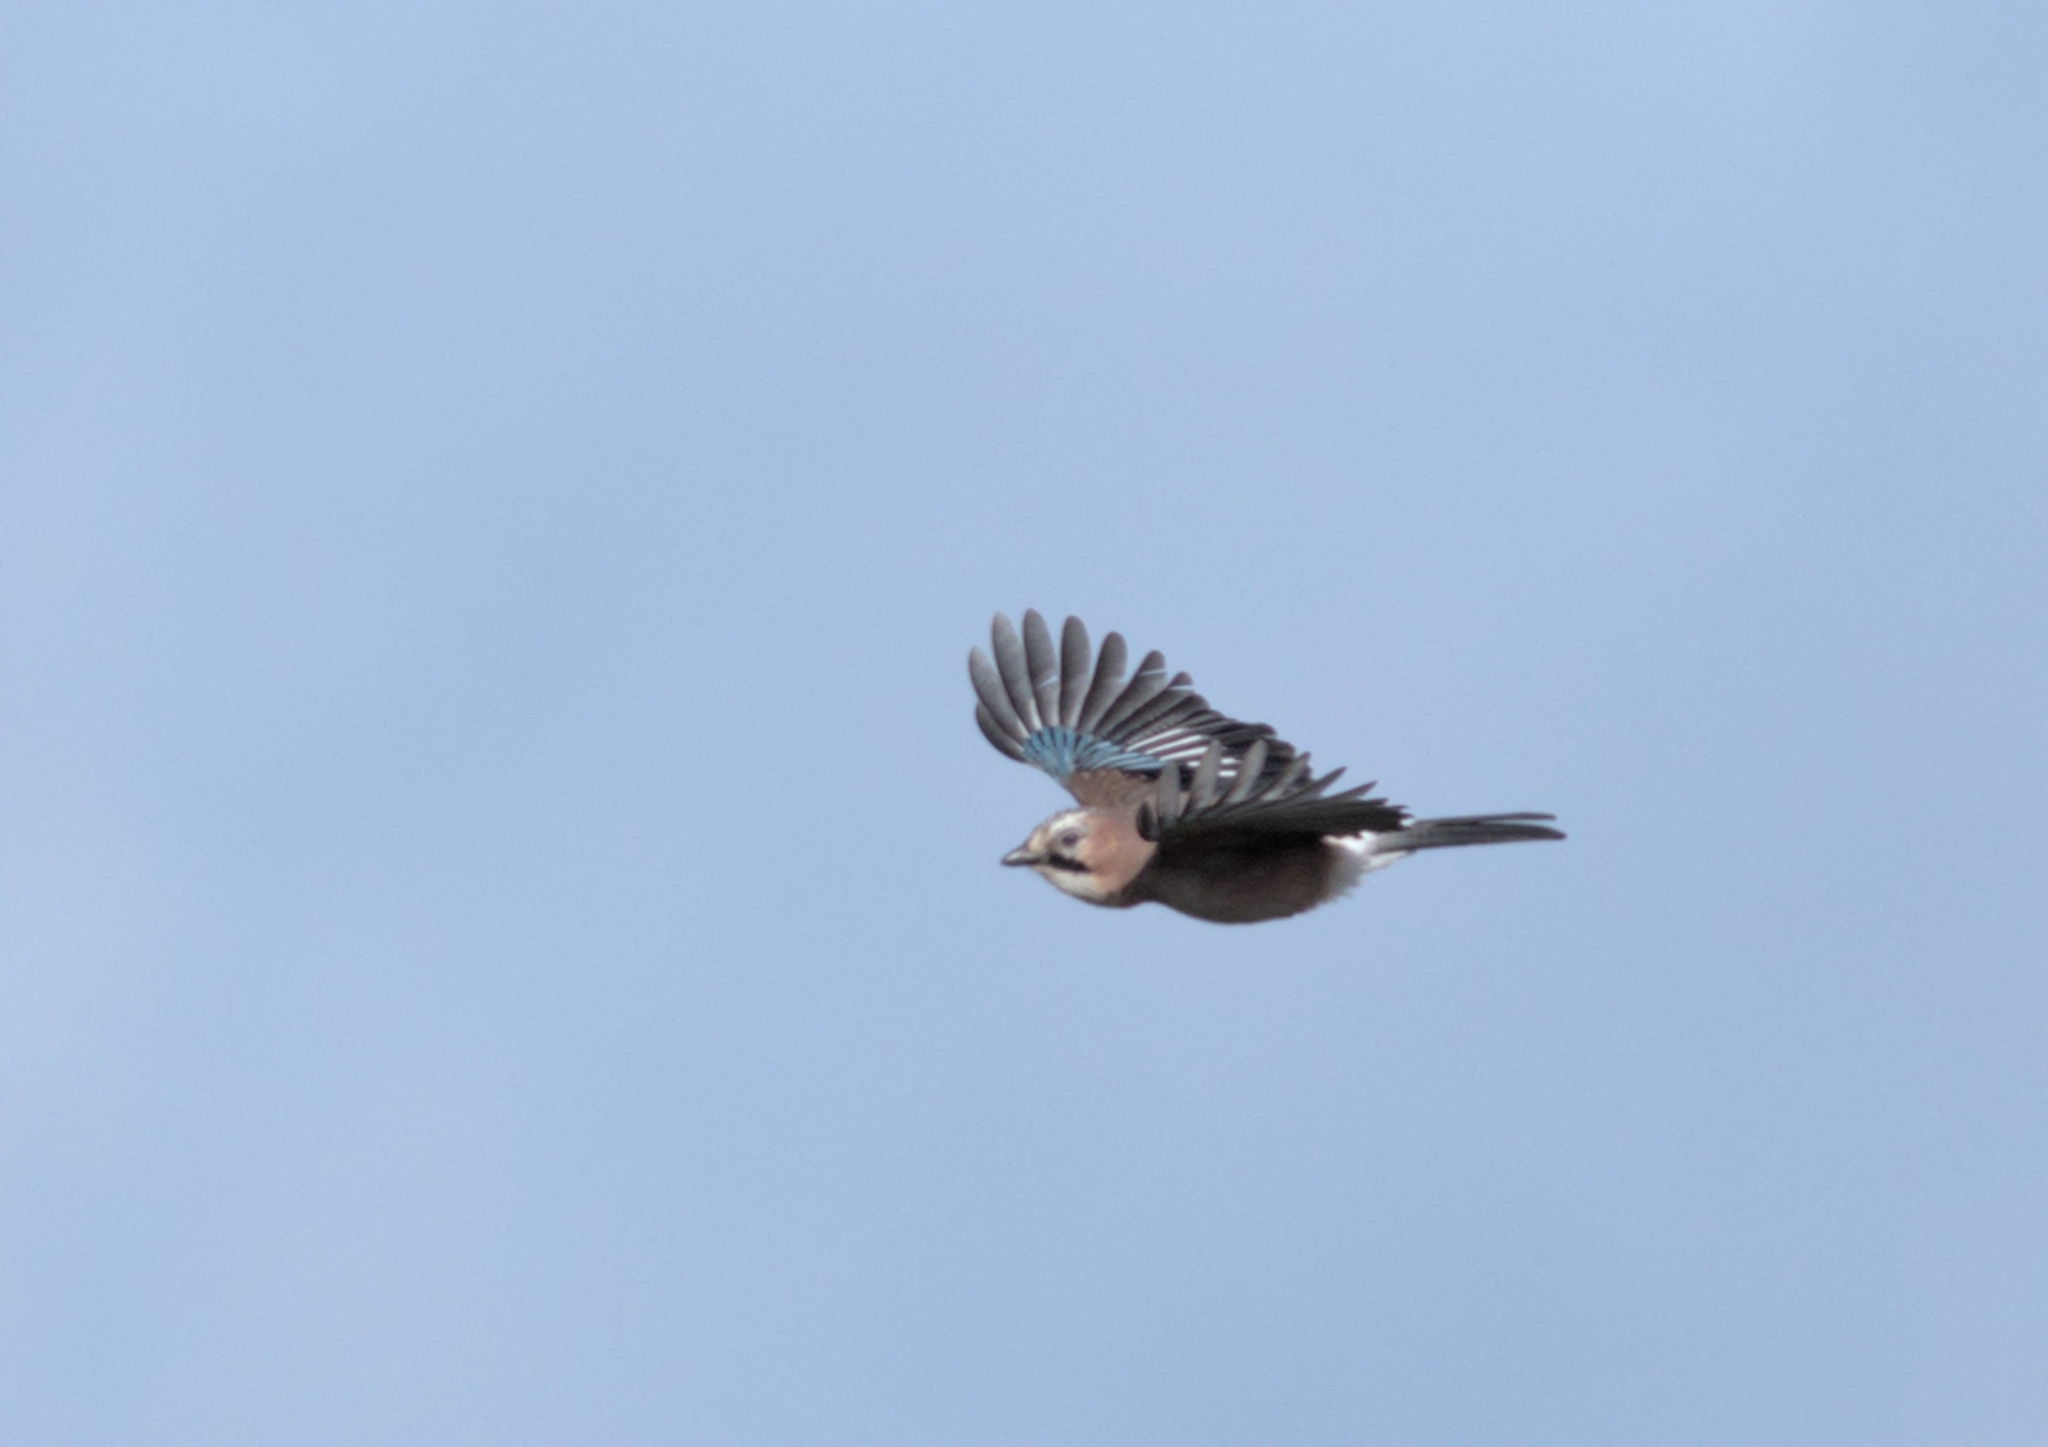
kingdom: Animalia
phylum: Chordata
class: Aves
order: Passeriformes
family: Corvidae
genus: Garrulus
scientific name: Garrulus glandarius
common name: Eurasian jay
